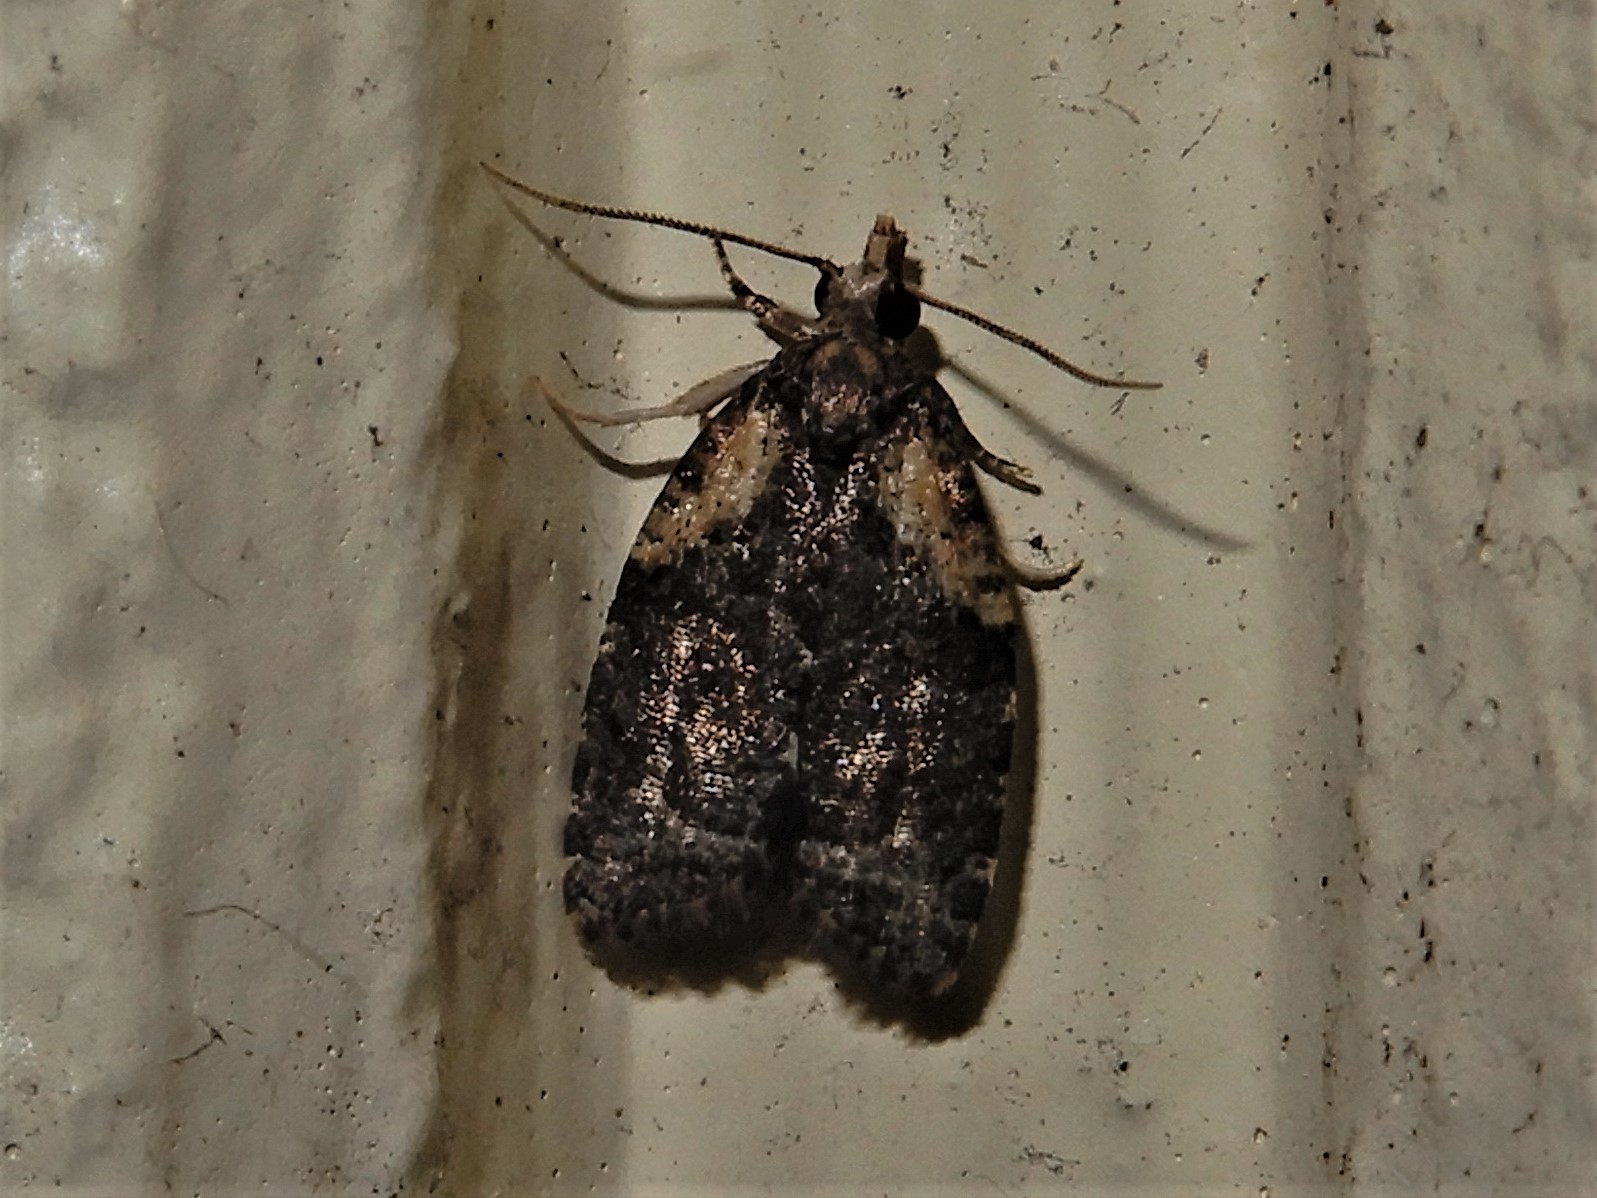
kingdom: Animalia
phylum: Arthropoda
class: Insecta
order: Lepidoptera
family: Tortricidae
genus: Capua
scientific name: Capua intractana
